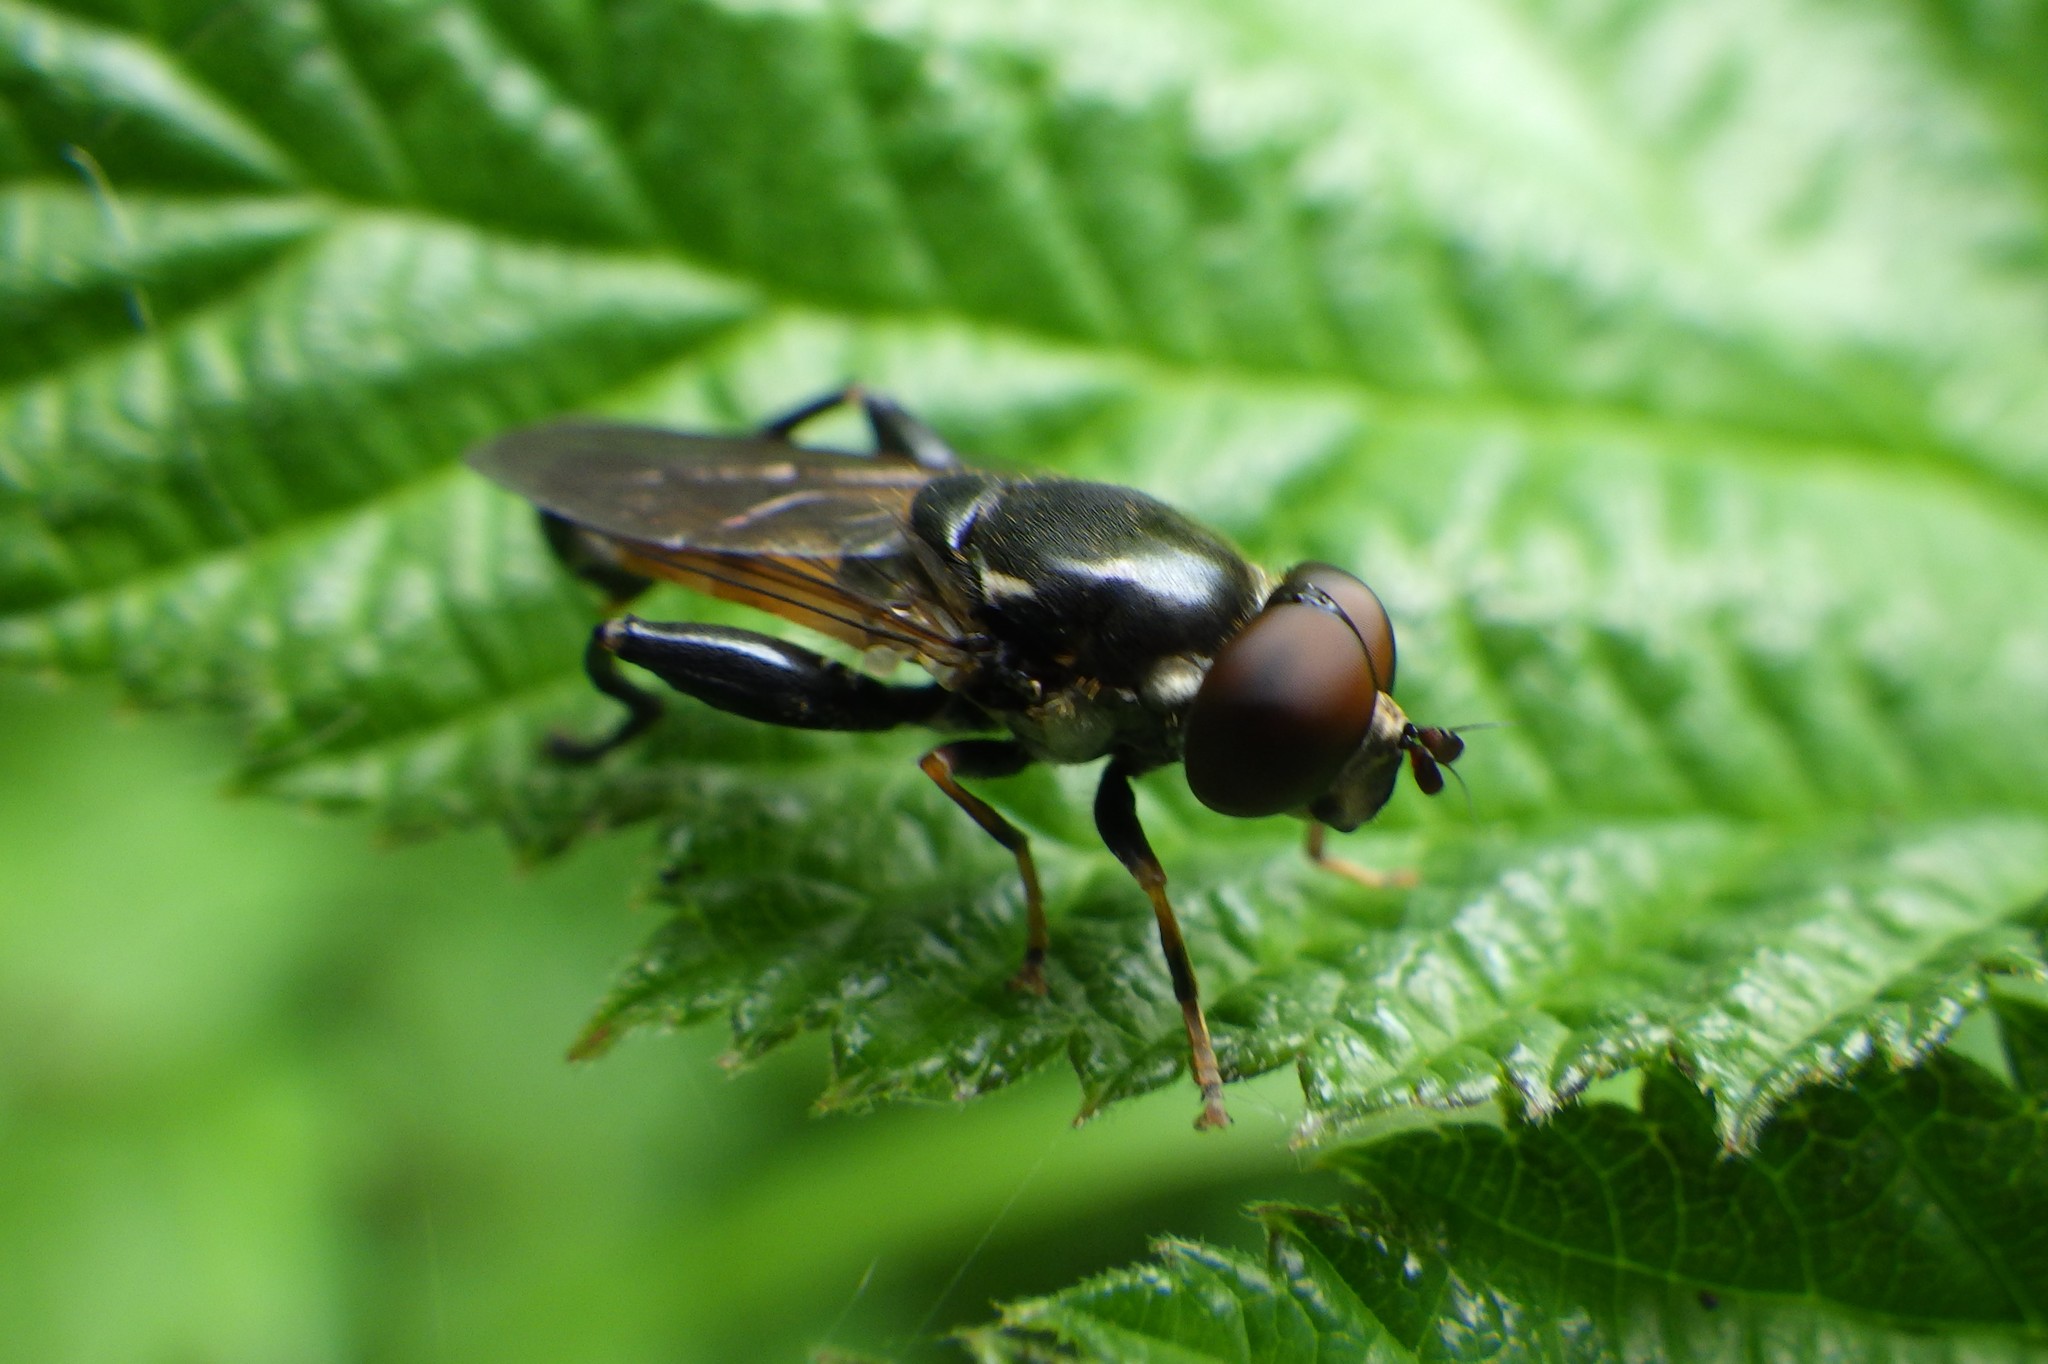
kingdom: Animalia
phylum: Arthropoda
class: Insecta
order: Diptera
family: Syrphidae
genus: Tropidia
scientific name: Tropidia scita
